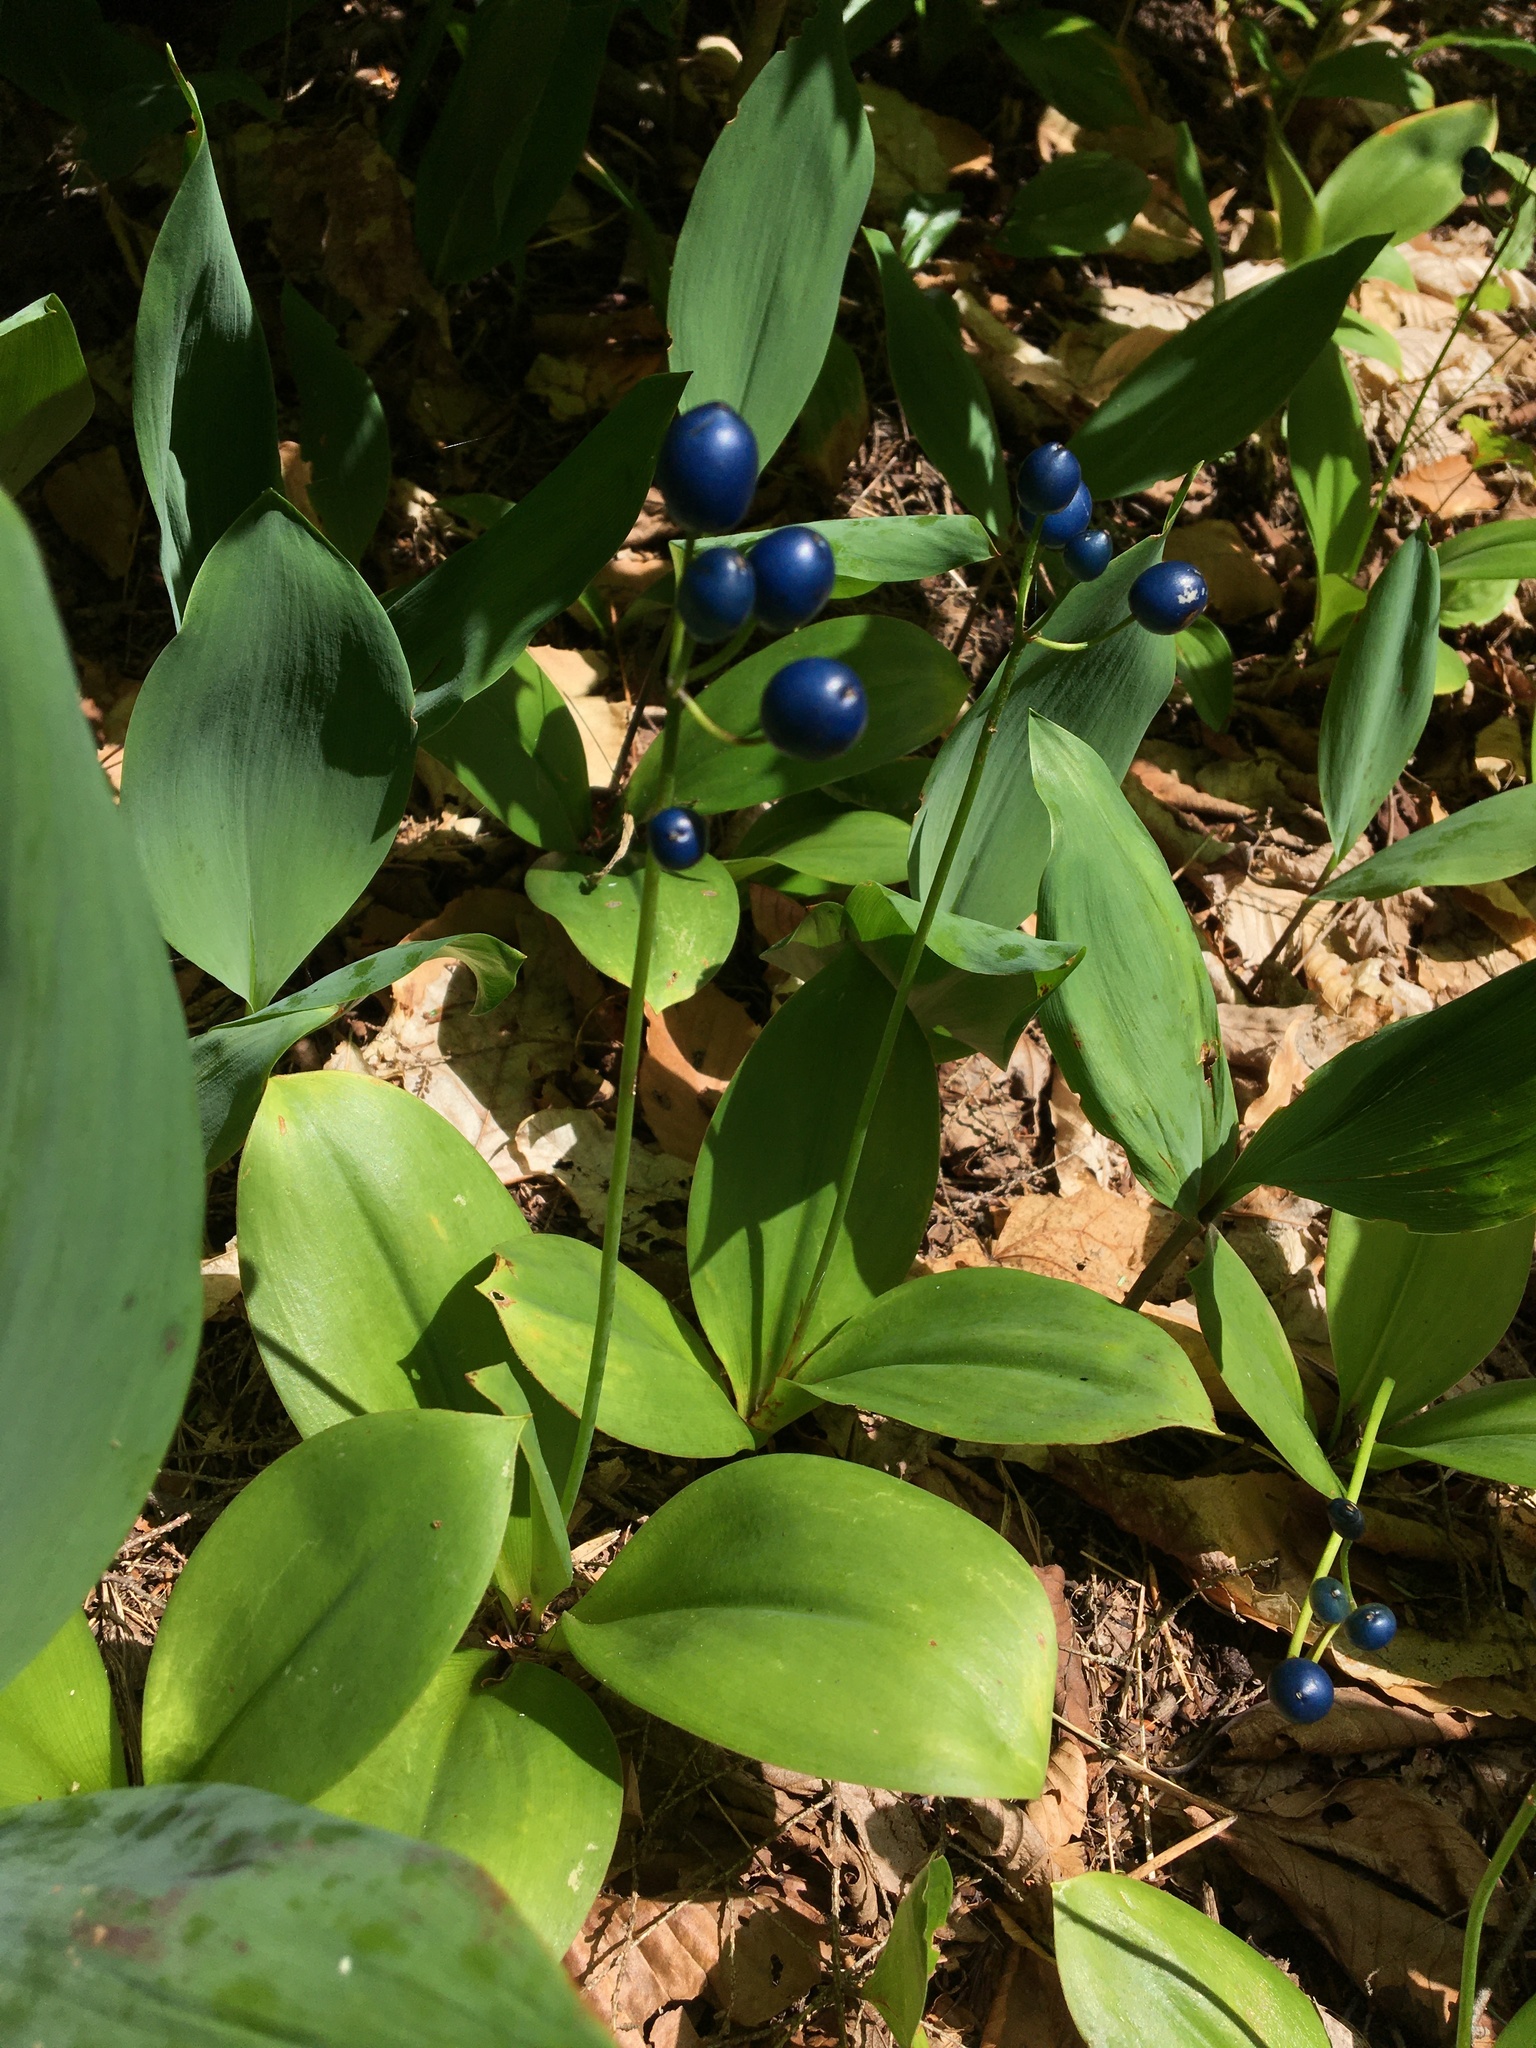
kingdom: Plantae
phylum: Tracheophyta
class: Liliopsida
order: Liliales
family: Liliaceae
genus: Clintonia
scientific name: Clintonia borealis
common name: Yellow clintonia
